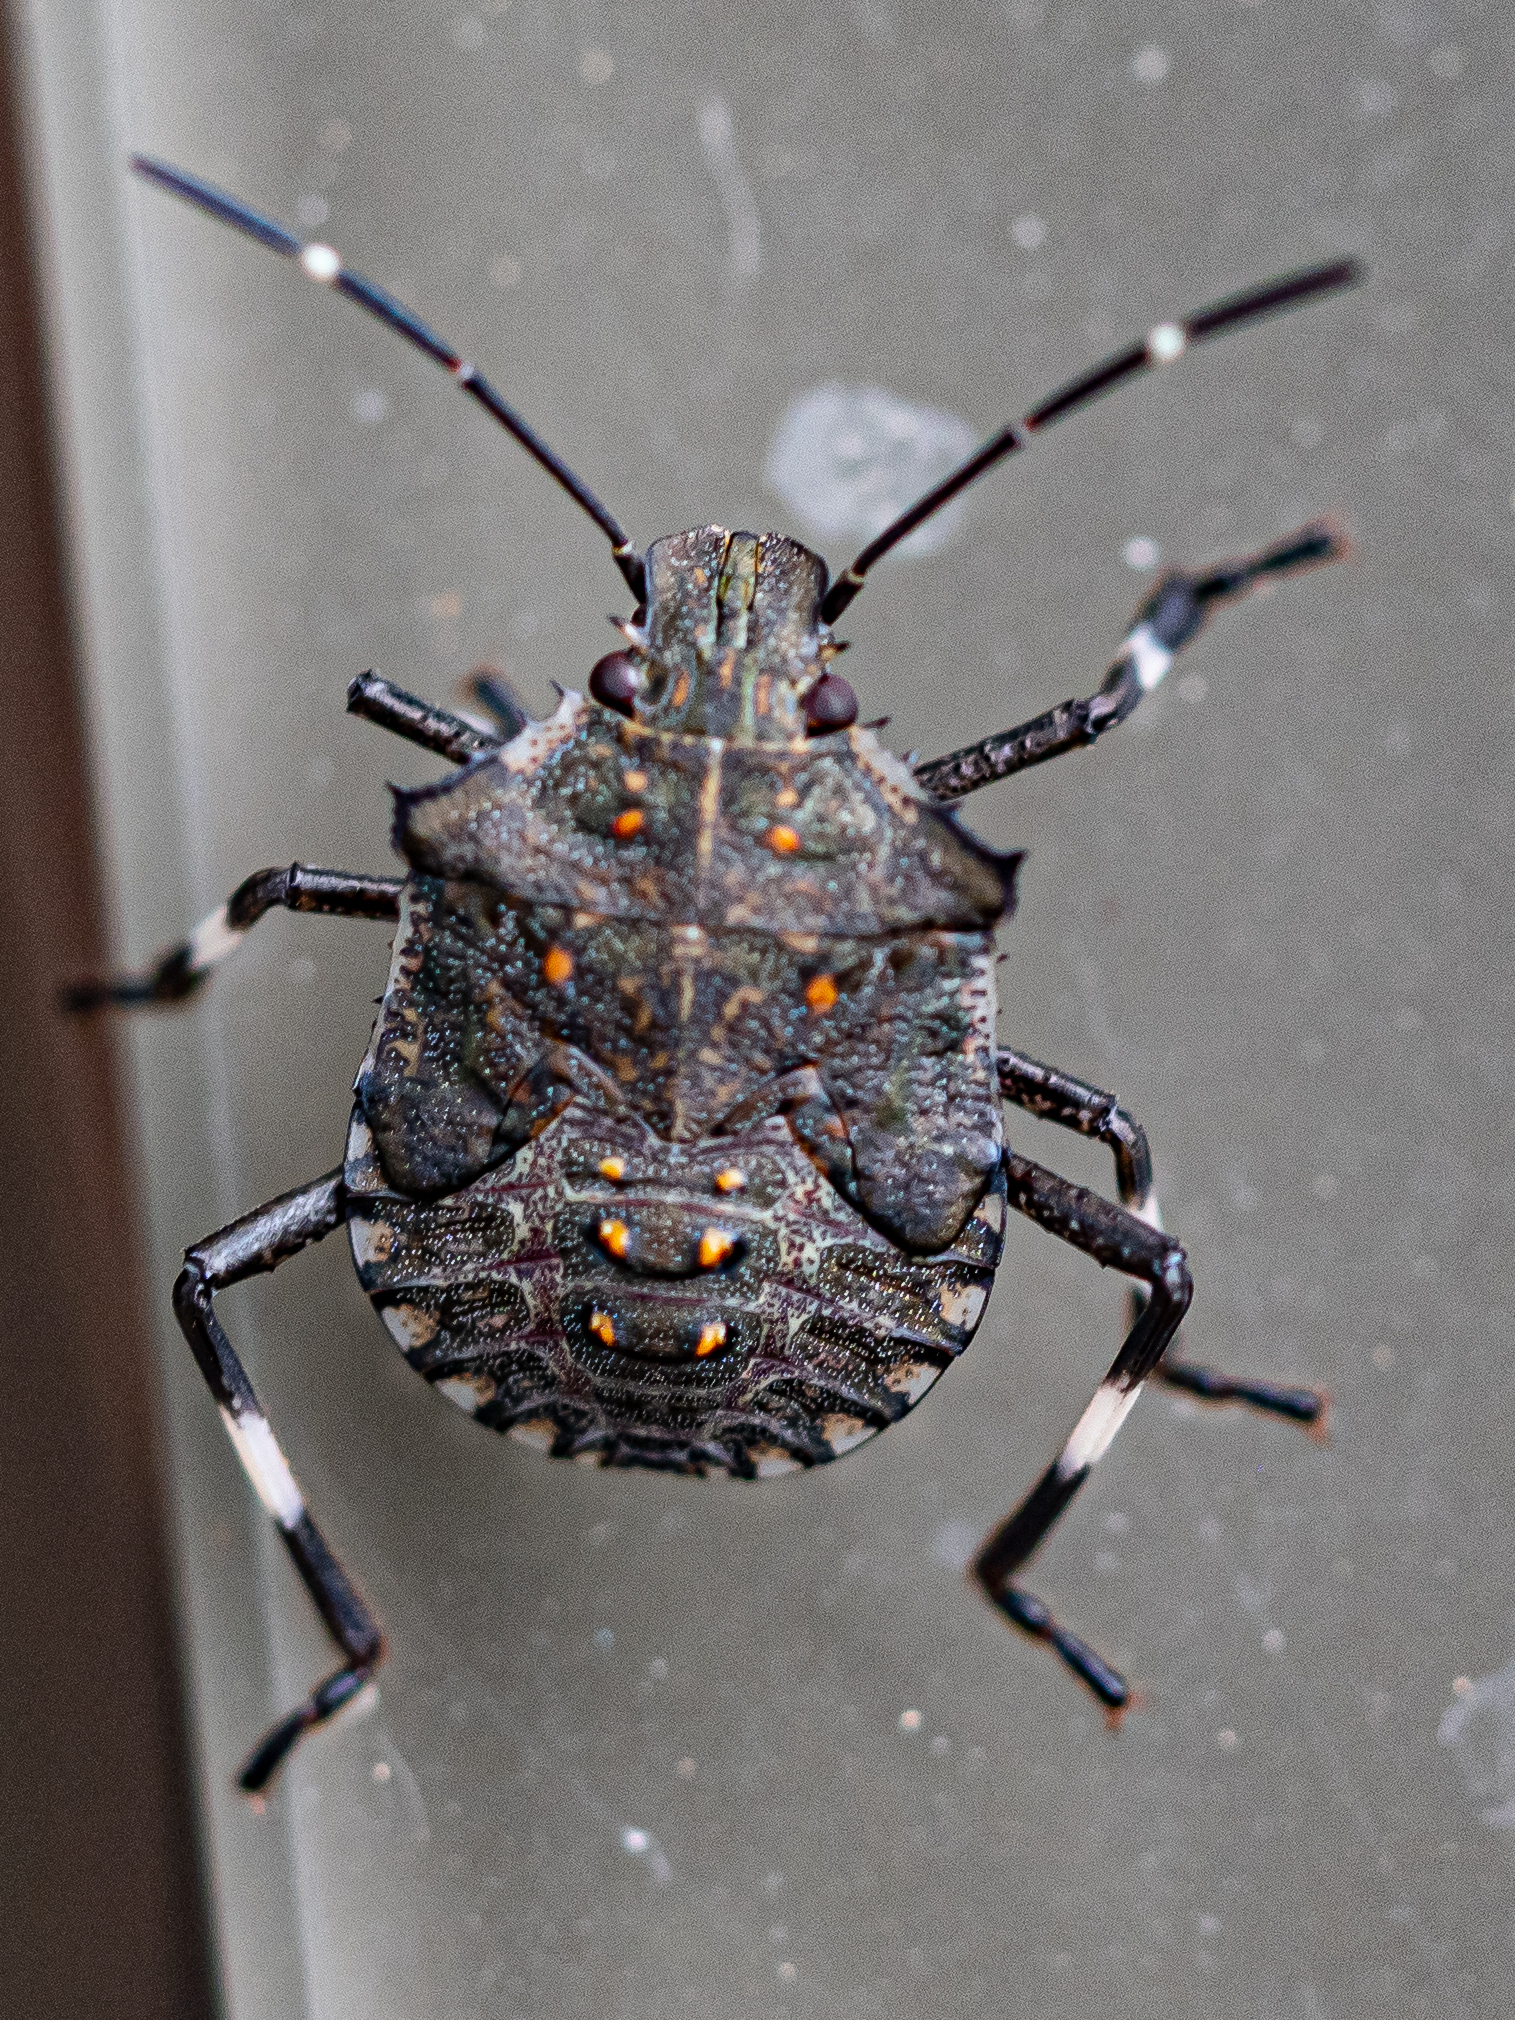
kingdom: Animalia
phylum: Arthropoda
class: Insecta
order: Hemiptera
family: Pentatomidae
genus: Halyomorpha
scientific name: Halyomorpha halys
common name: Brown marmorated stink bug
